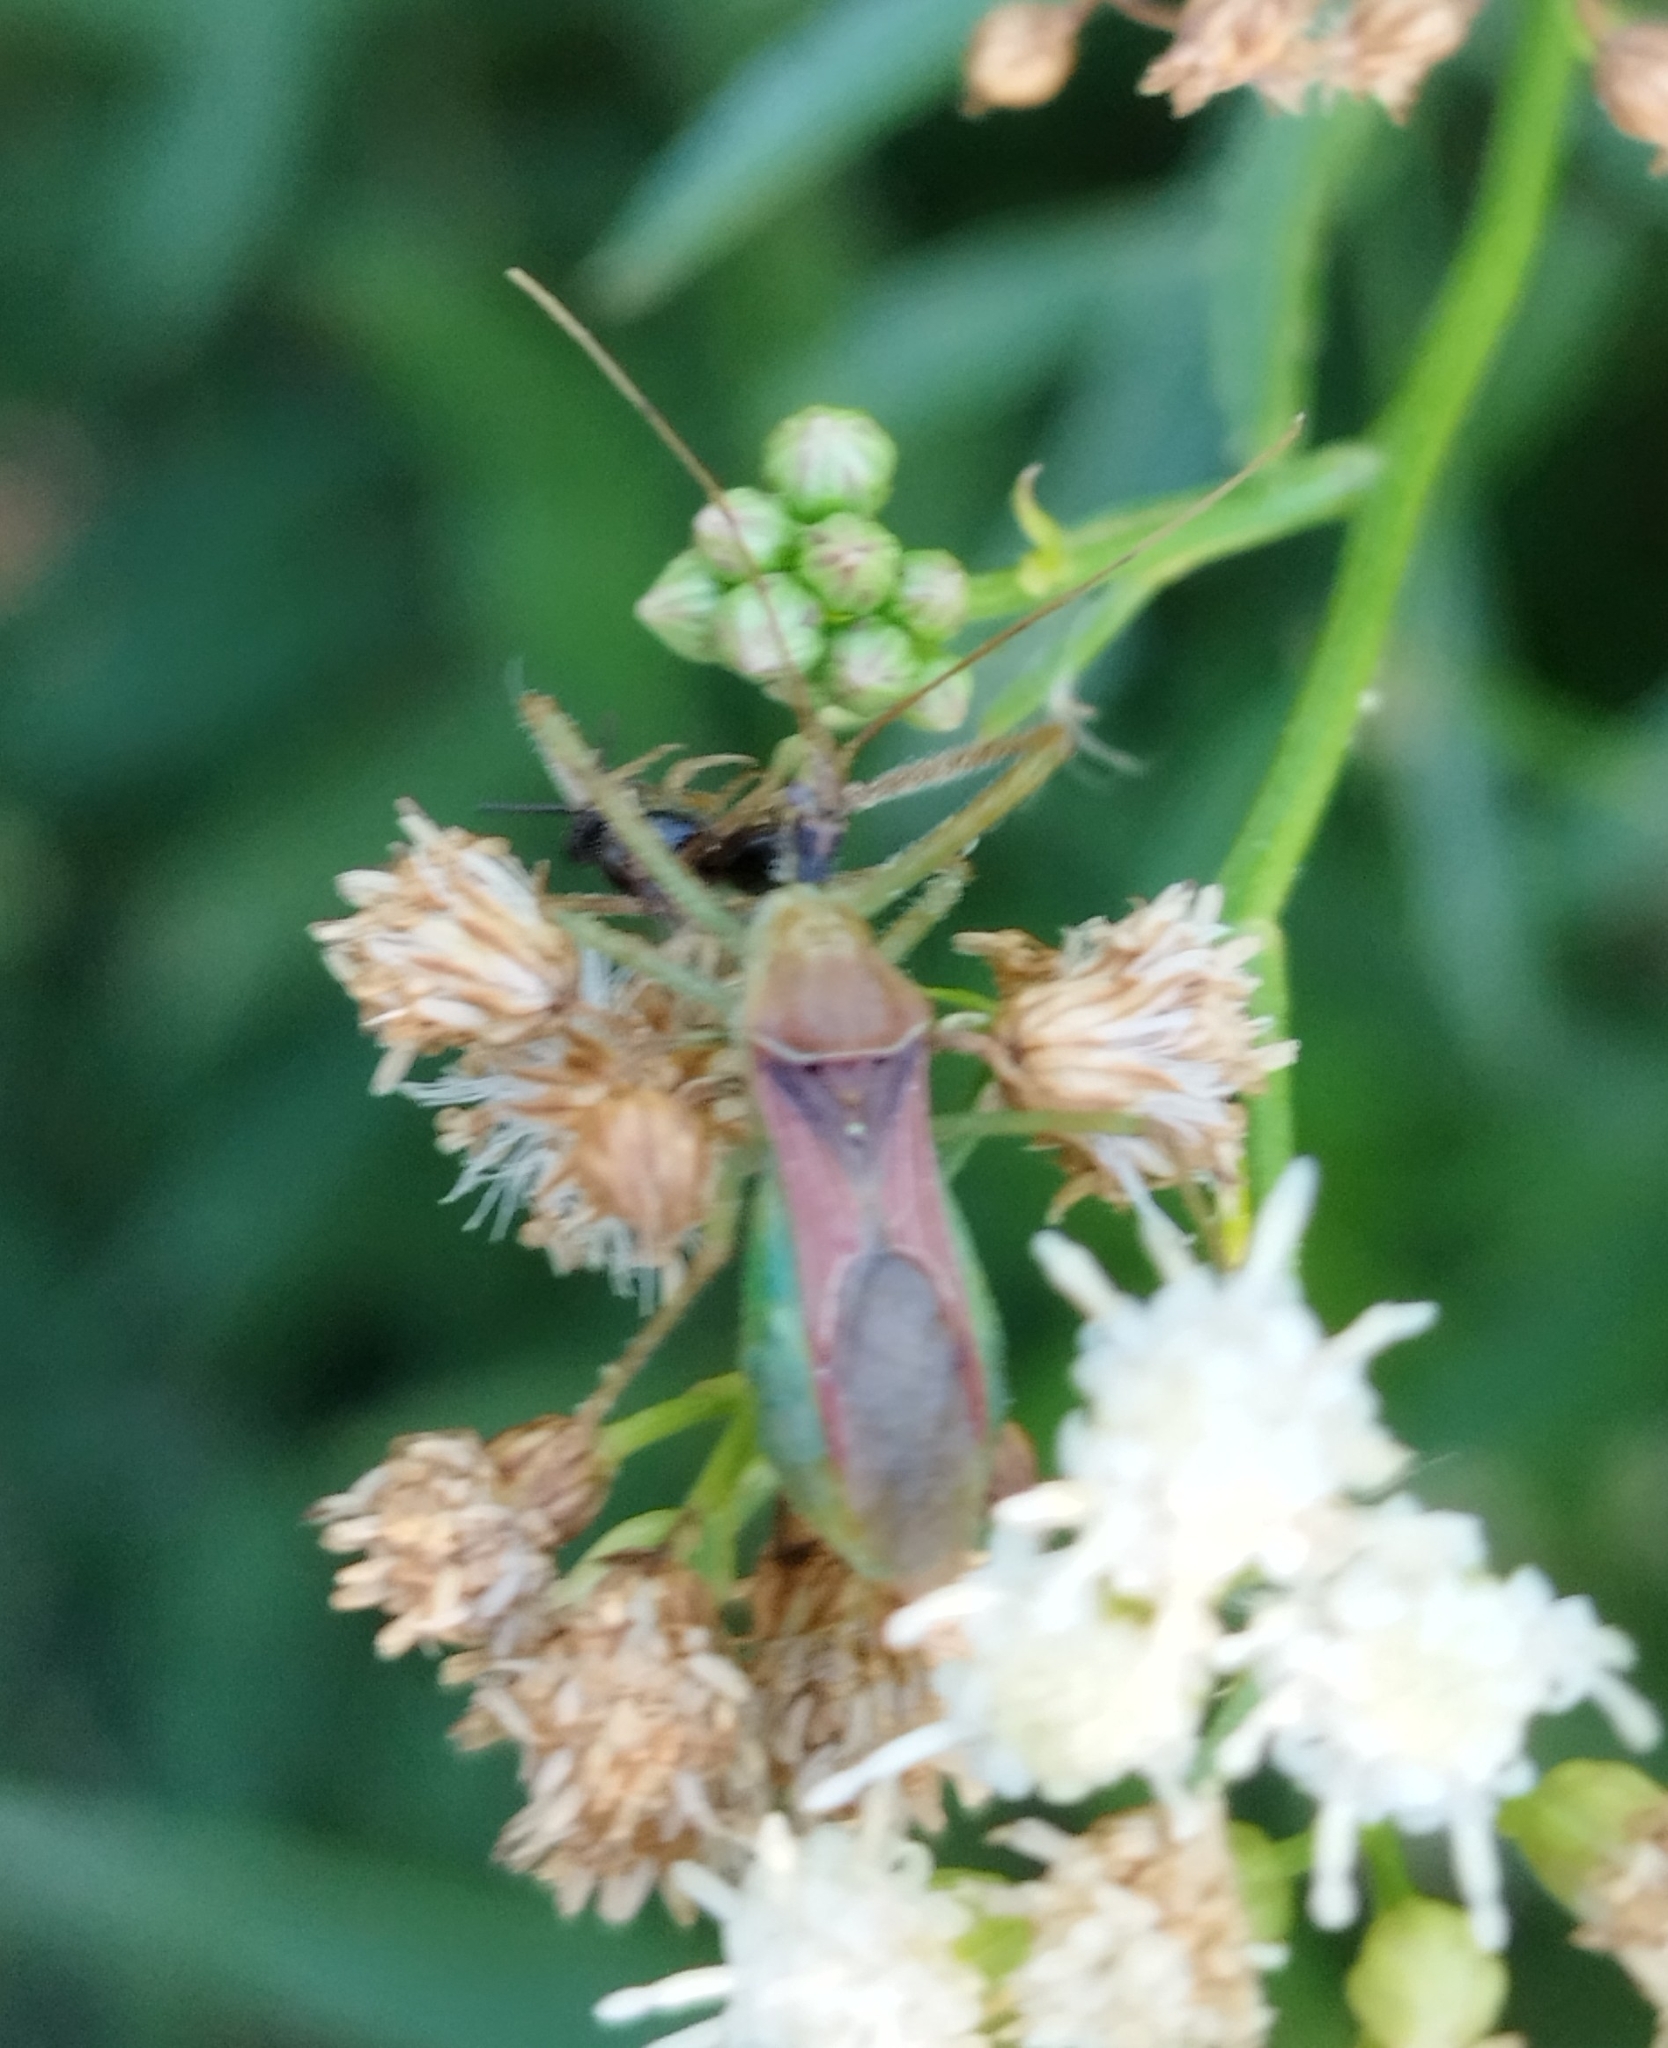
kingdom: Animalia
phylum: Arthropoda
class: Insecta
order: Hemiptera
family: Reduviidae
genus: Zelus
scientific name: Zelus renardii
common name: Assassin bug
